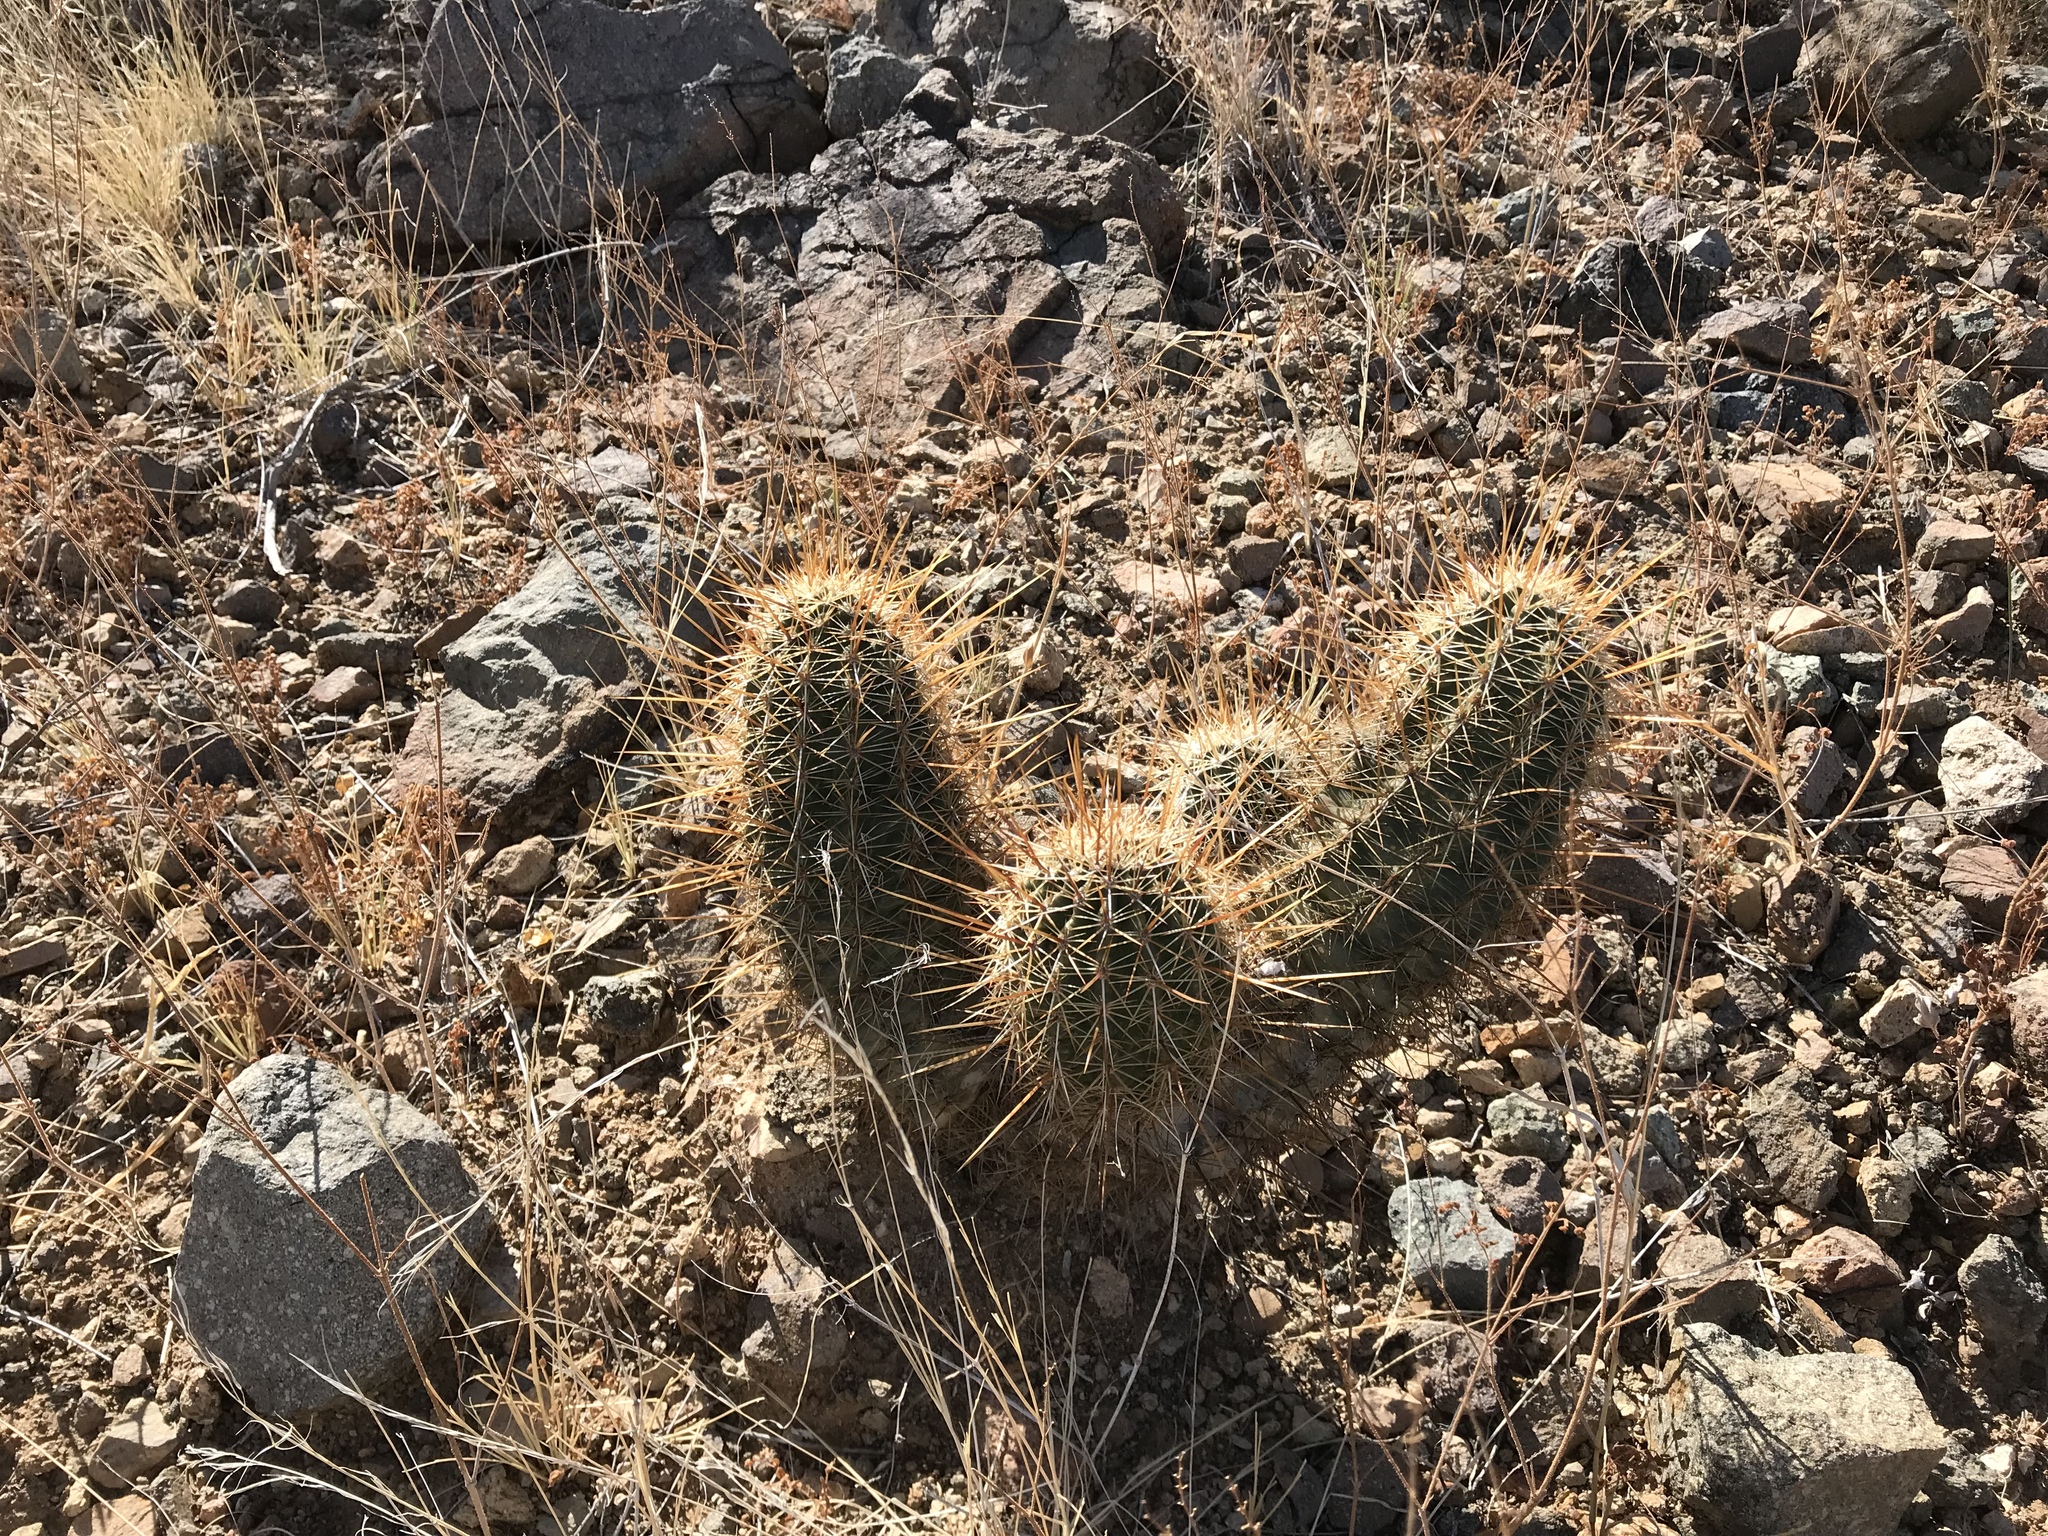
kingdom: Plantae
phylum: Tracheophyta
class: Magnoliopsida
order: Caryophyllales
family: Cactaceae
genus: Echinocereus
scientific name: Echinocereus fasciculatus
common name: Bundle hedgehog
